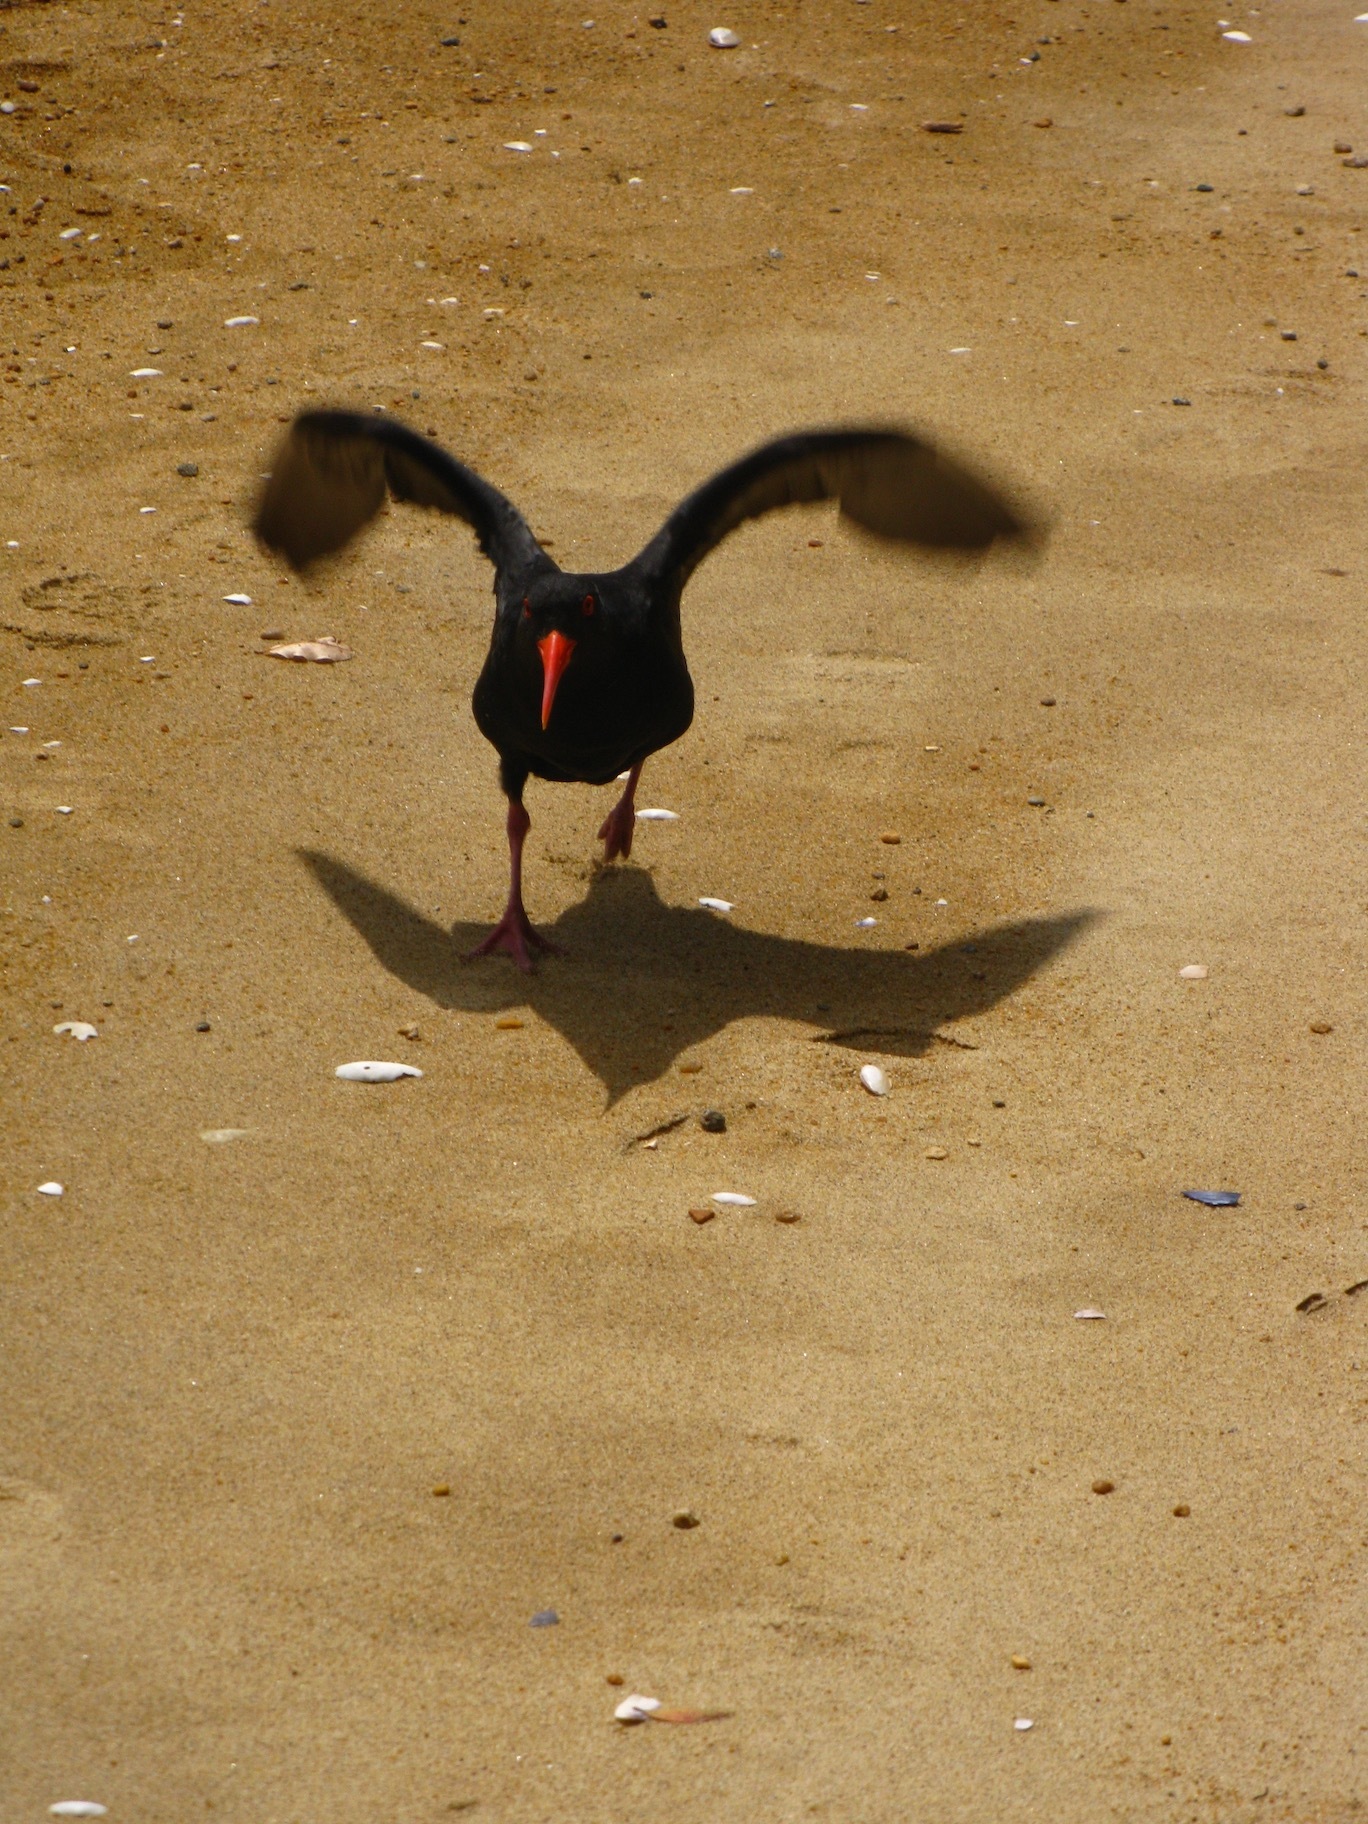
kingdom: Animalia
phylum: Chordata
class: Aves
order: Charadriiformes
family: Haematopodidae
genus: Haematopus
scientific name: Haematopus unicolor
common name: Variable oystercatcher
